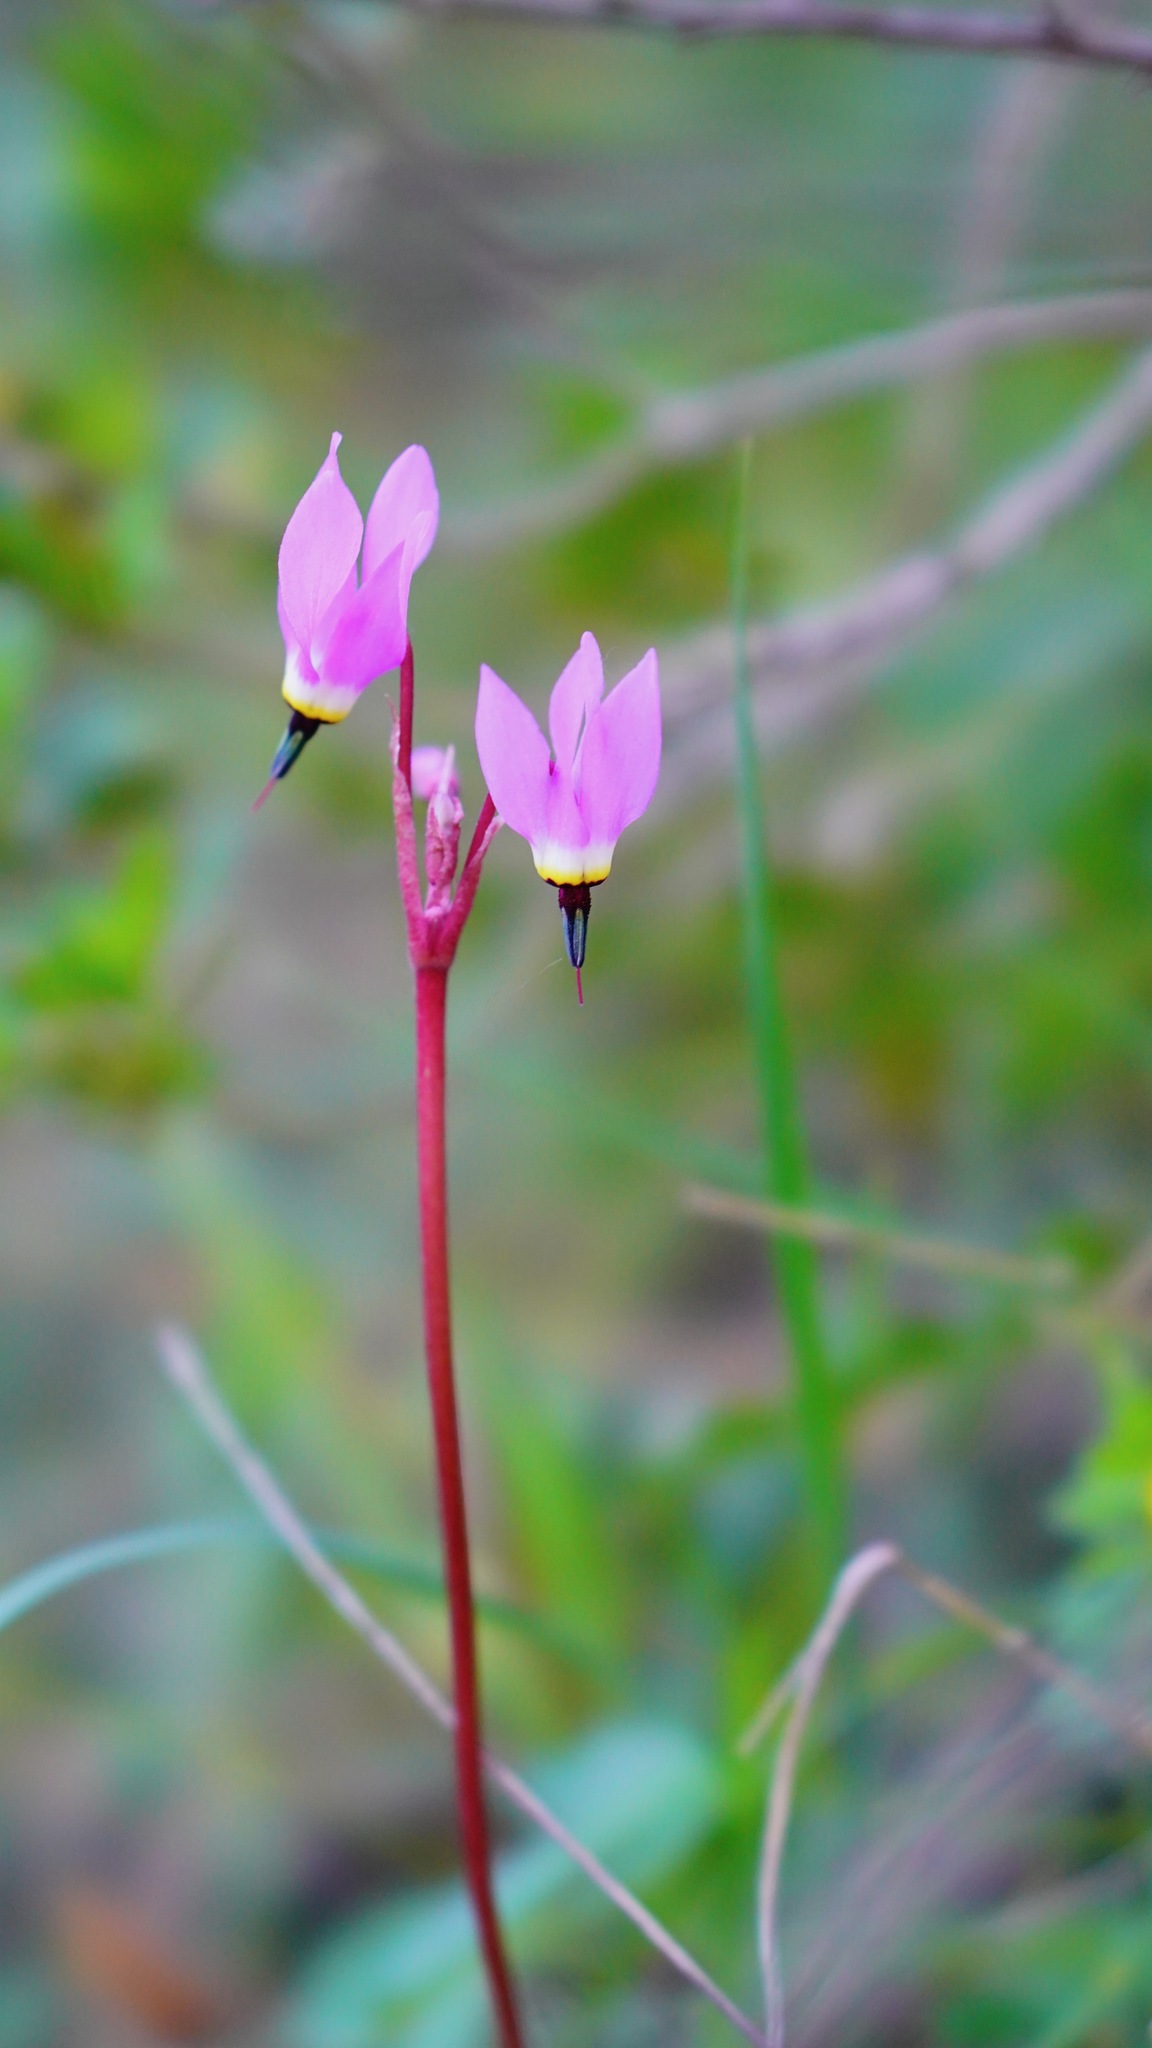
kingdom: Plantae
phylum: Tracheophyta
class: Magnoliopsida
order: Ericales
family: Primulaceae
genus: Dodecatheon
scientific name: Dodecatheon hendersonii
